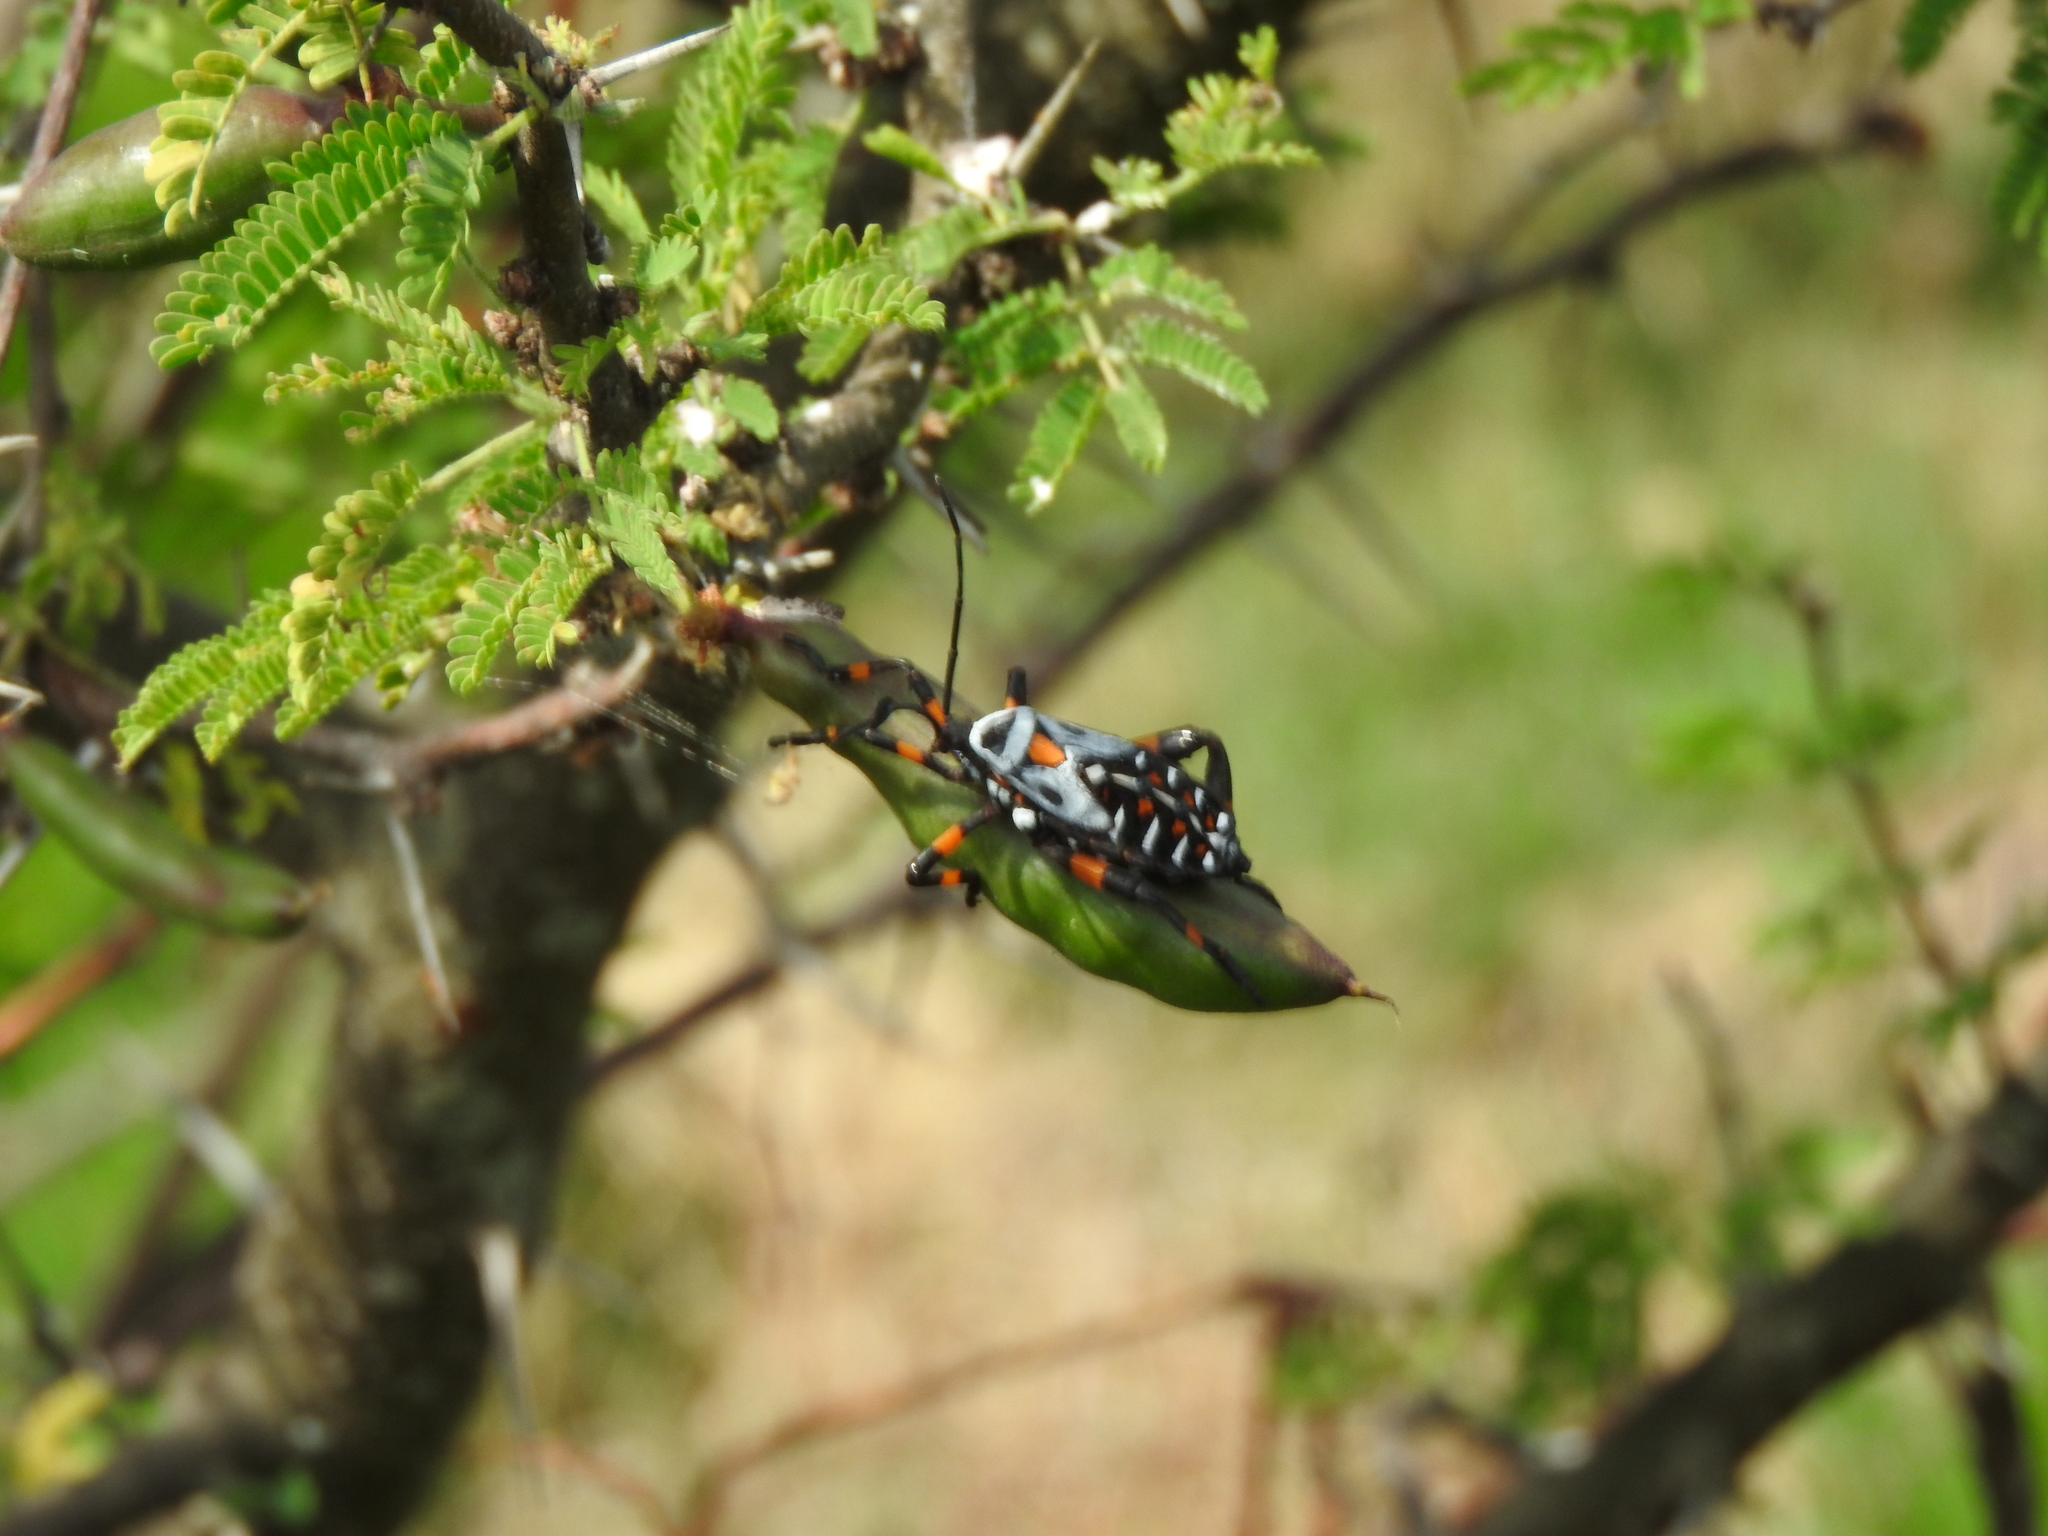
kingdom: Animalia
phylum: Arthropoda
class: Insecta
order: Hemiptera
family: Coreidae
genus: Thasus
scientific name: Thasus
